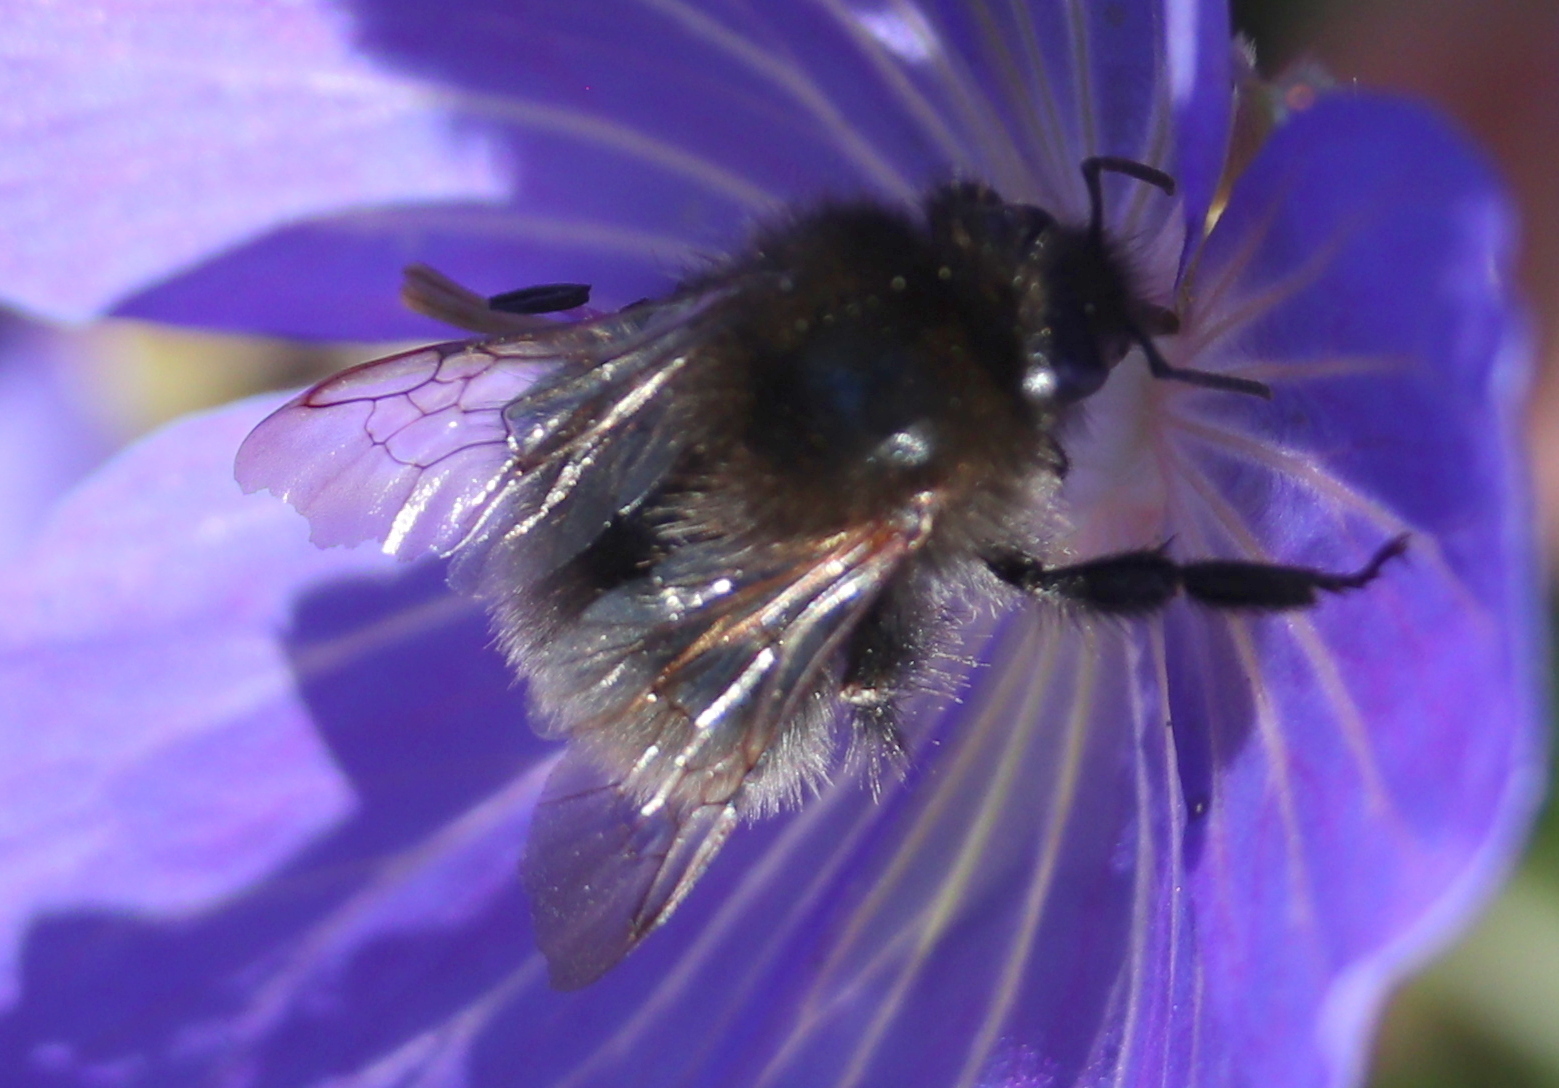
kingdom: Animalia
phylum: Arthropoda
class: Insecta
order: Hymenoptera
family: Apidae
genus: Bombus
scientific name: Bombus hypnorum
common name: New garden bumblebee
